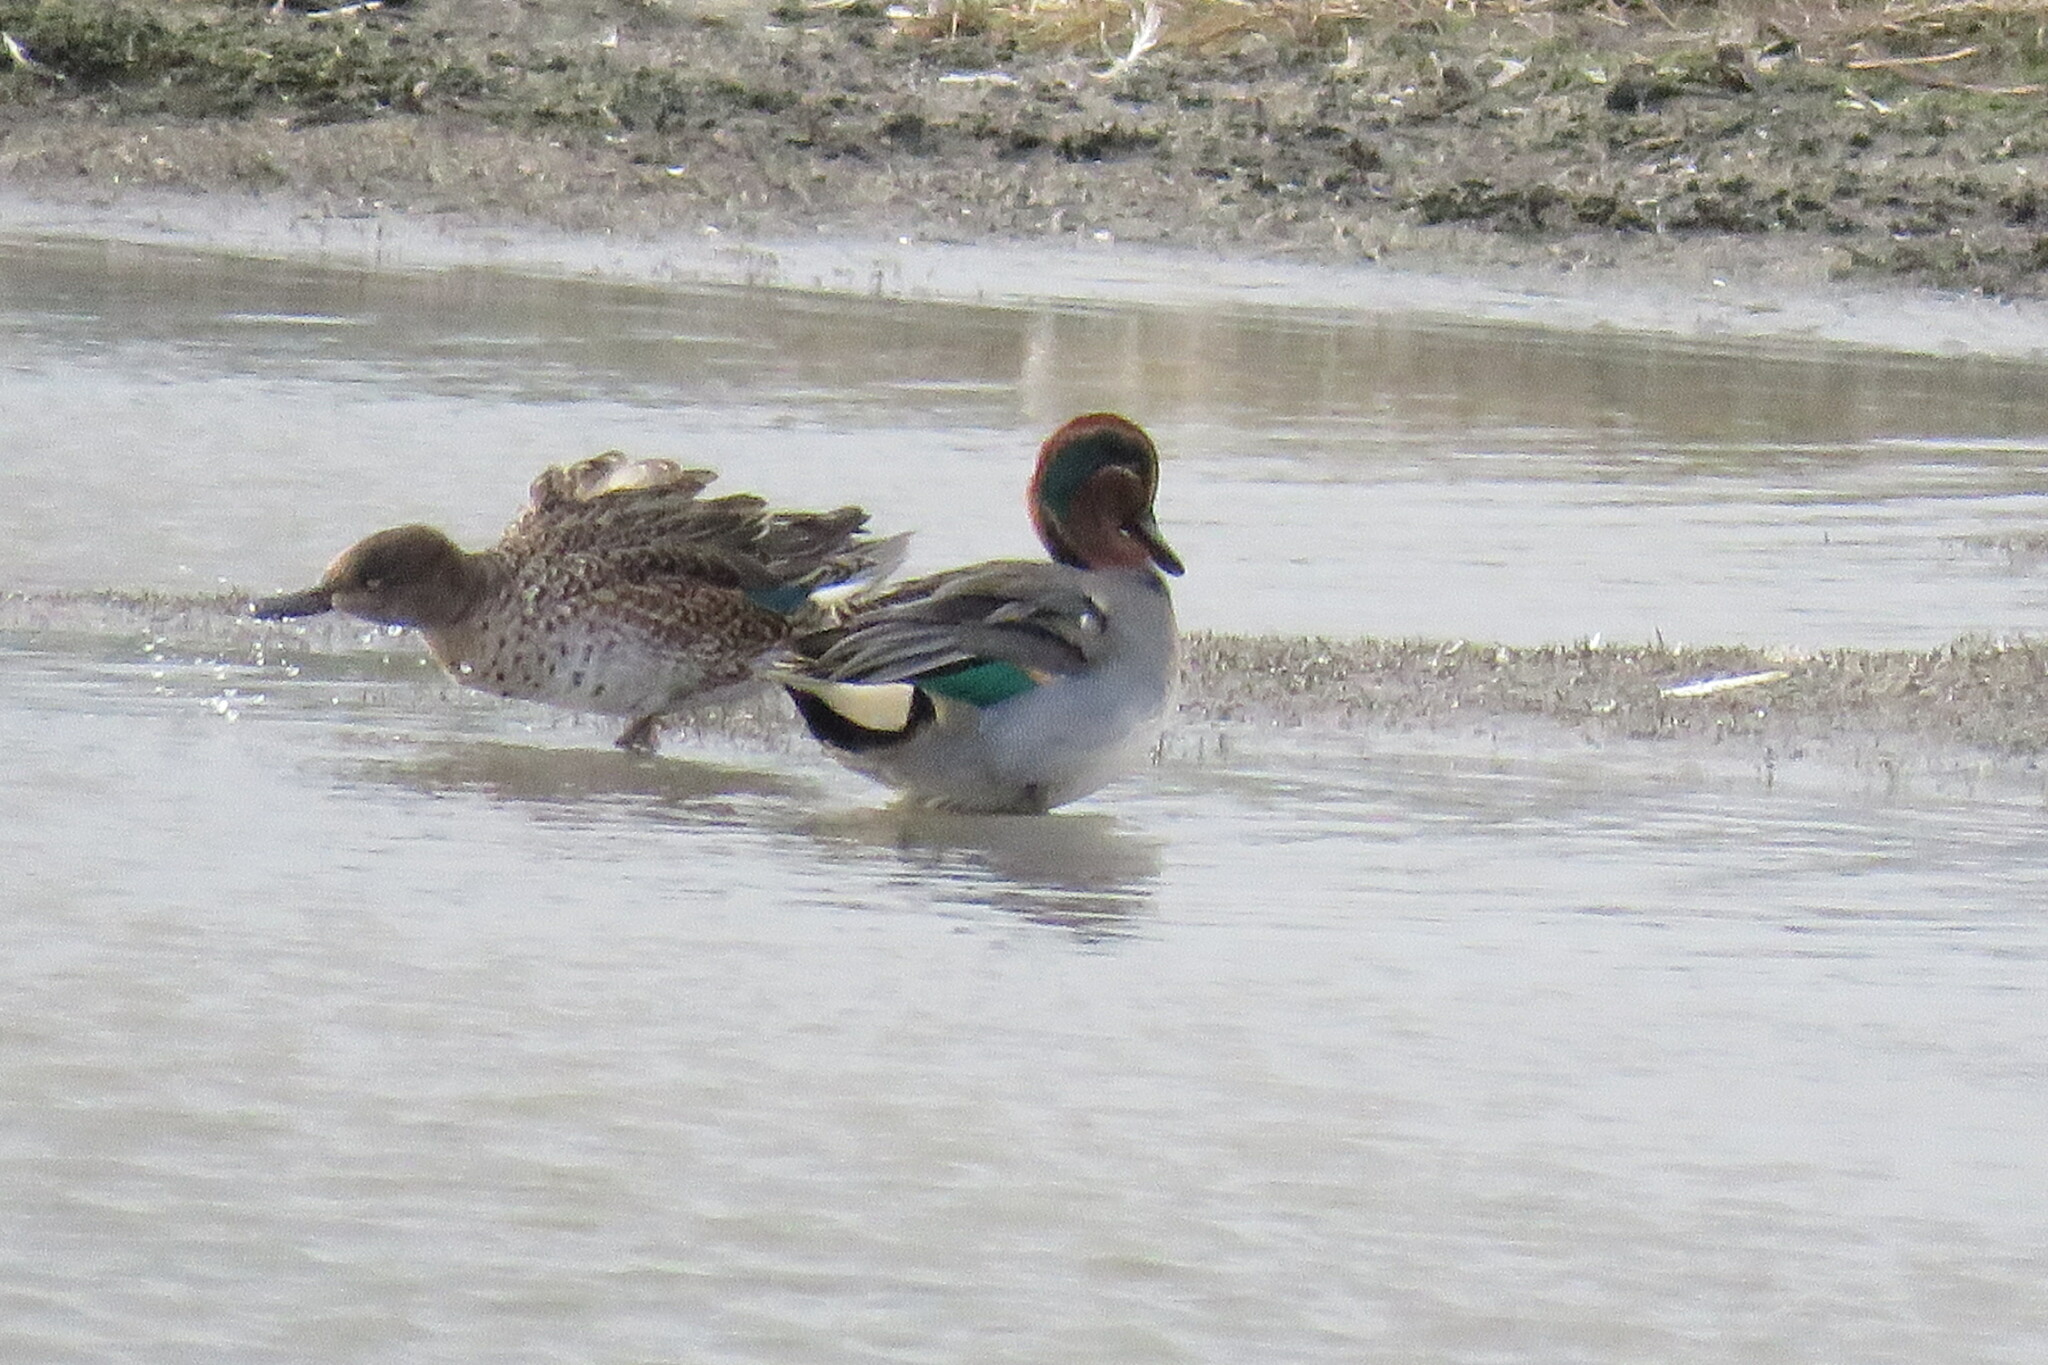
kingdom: Animalia
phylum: Chordata
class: Aves
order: Anseriformes
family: Anatidae
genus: Anas
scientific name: Anas crecca
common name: Eurasian teal
